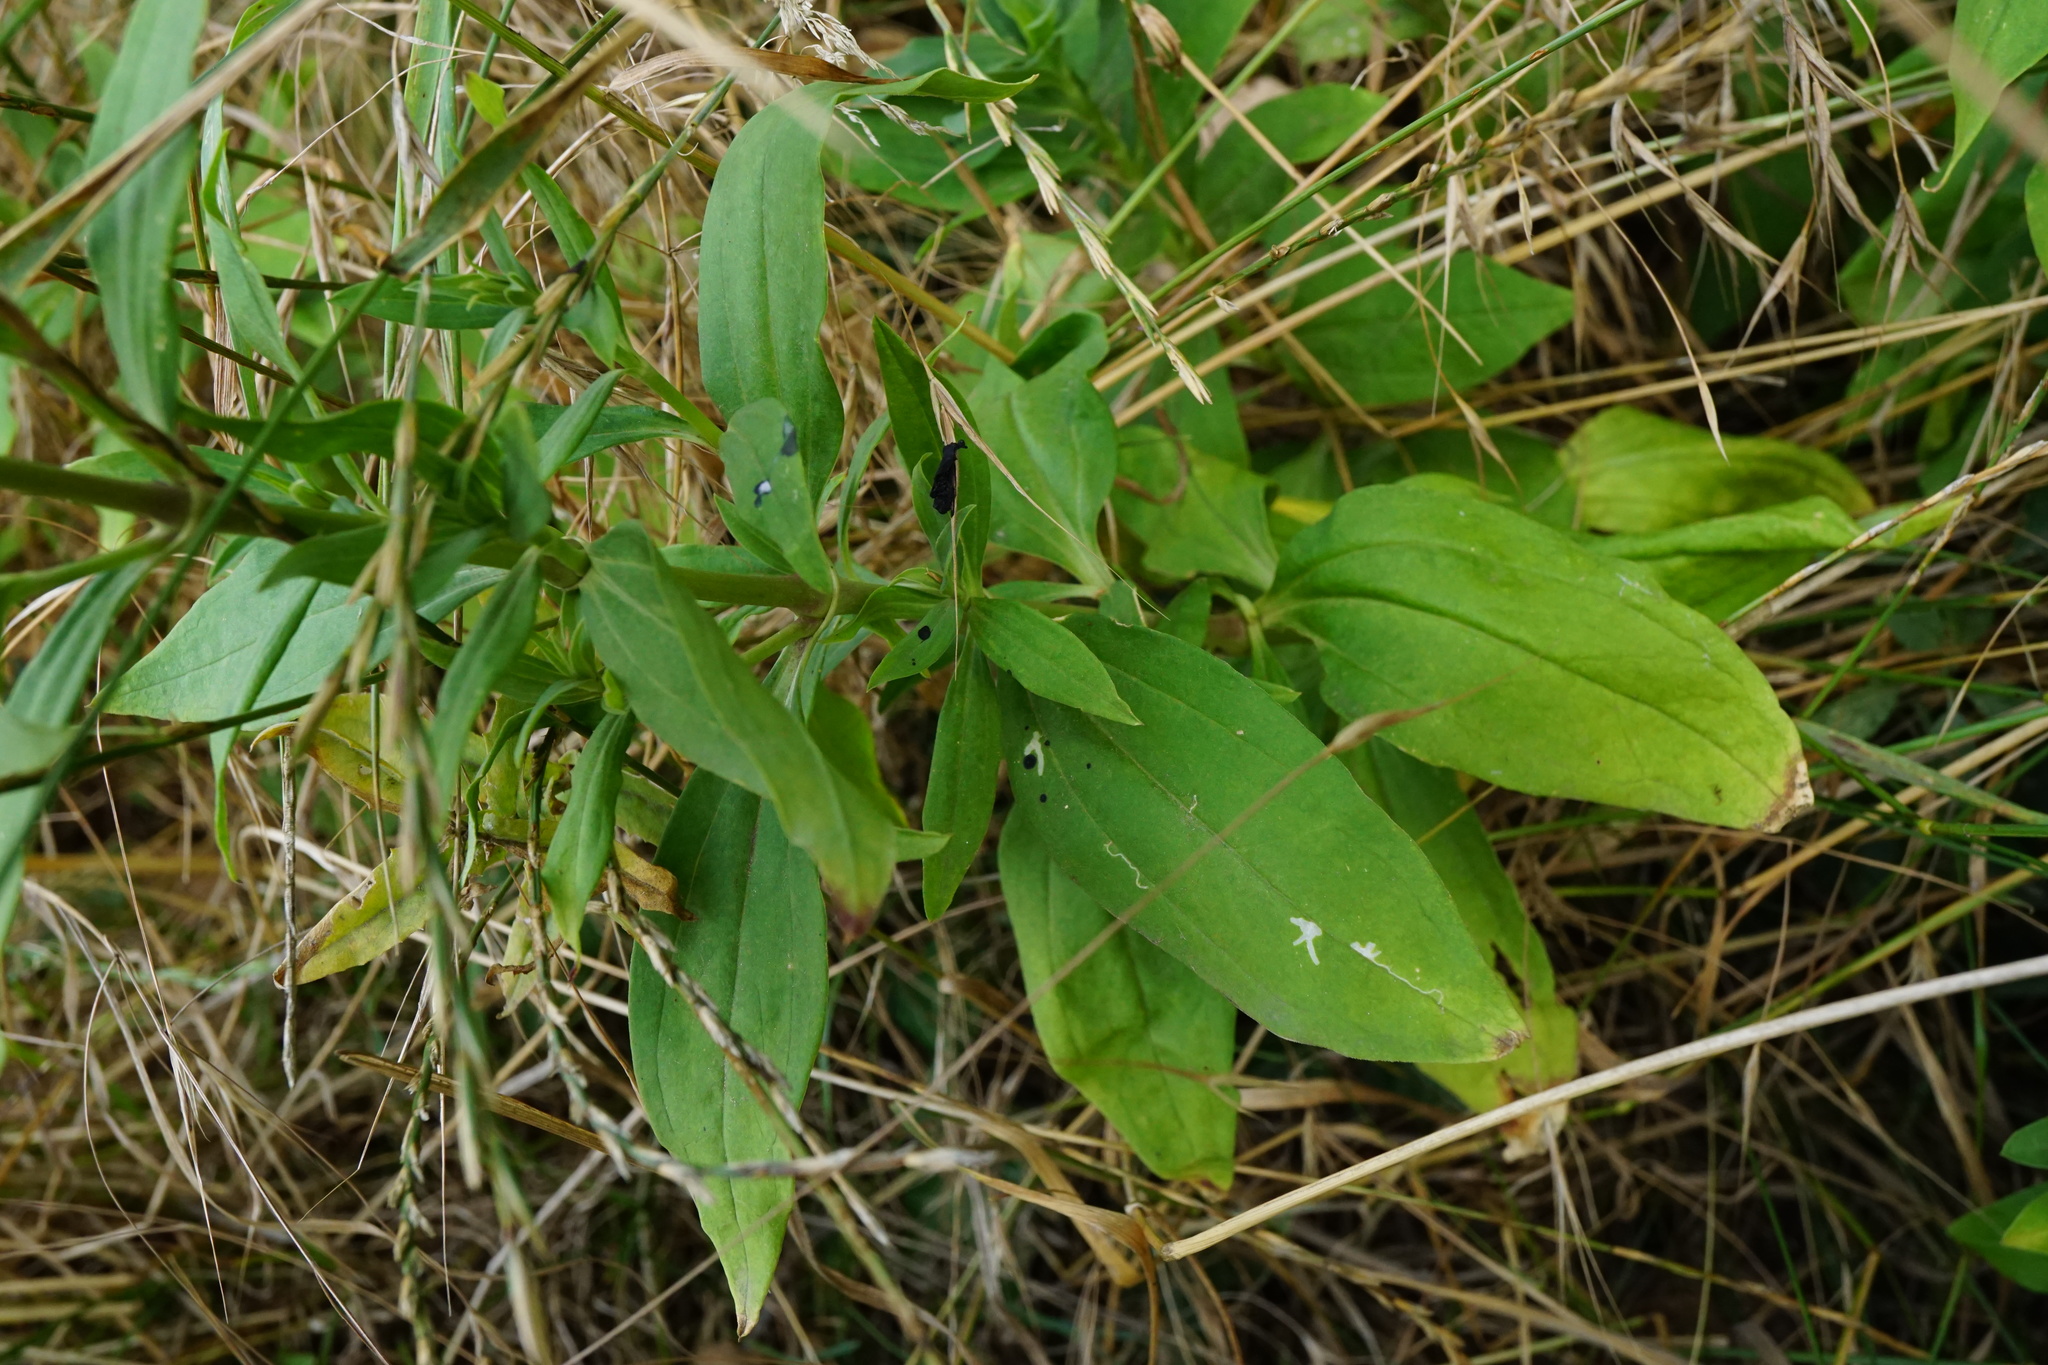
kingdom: Plantae
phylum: Tracheophyta
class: Magnoliopsida
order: Caryophyllales
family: Caryophyllaceae
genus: Saponaria
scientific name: Saponaria officinalis
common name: Soapwort
